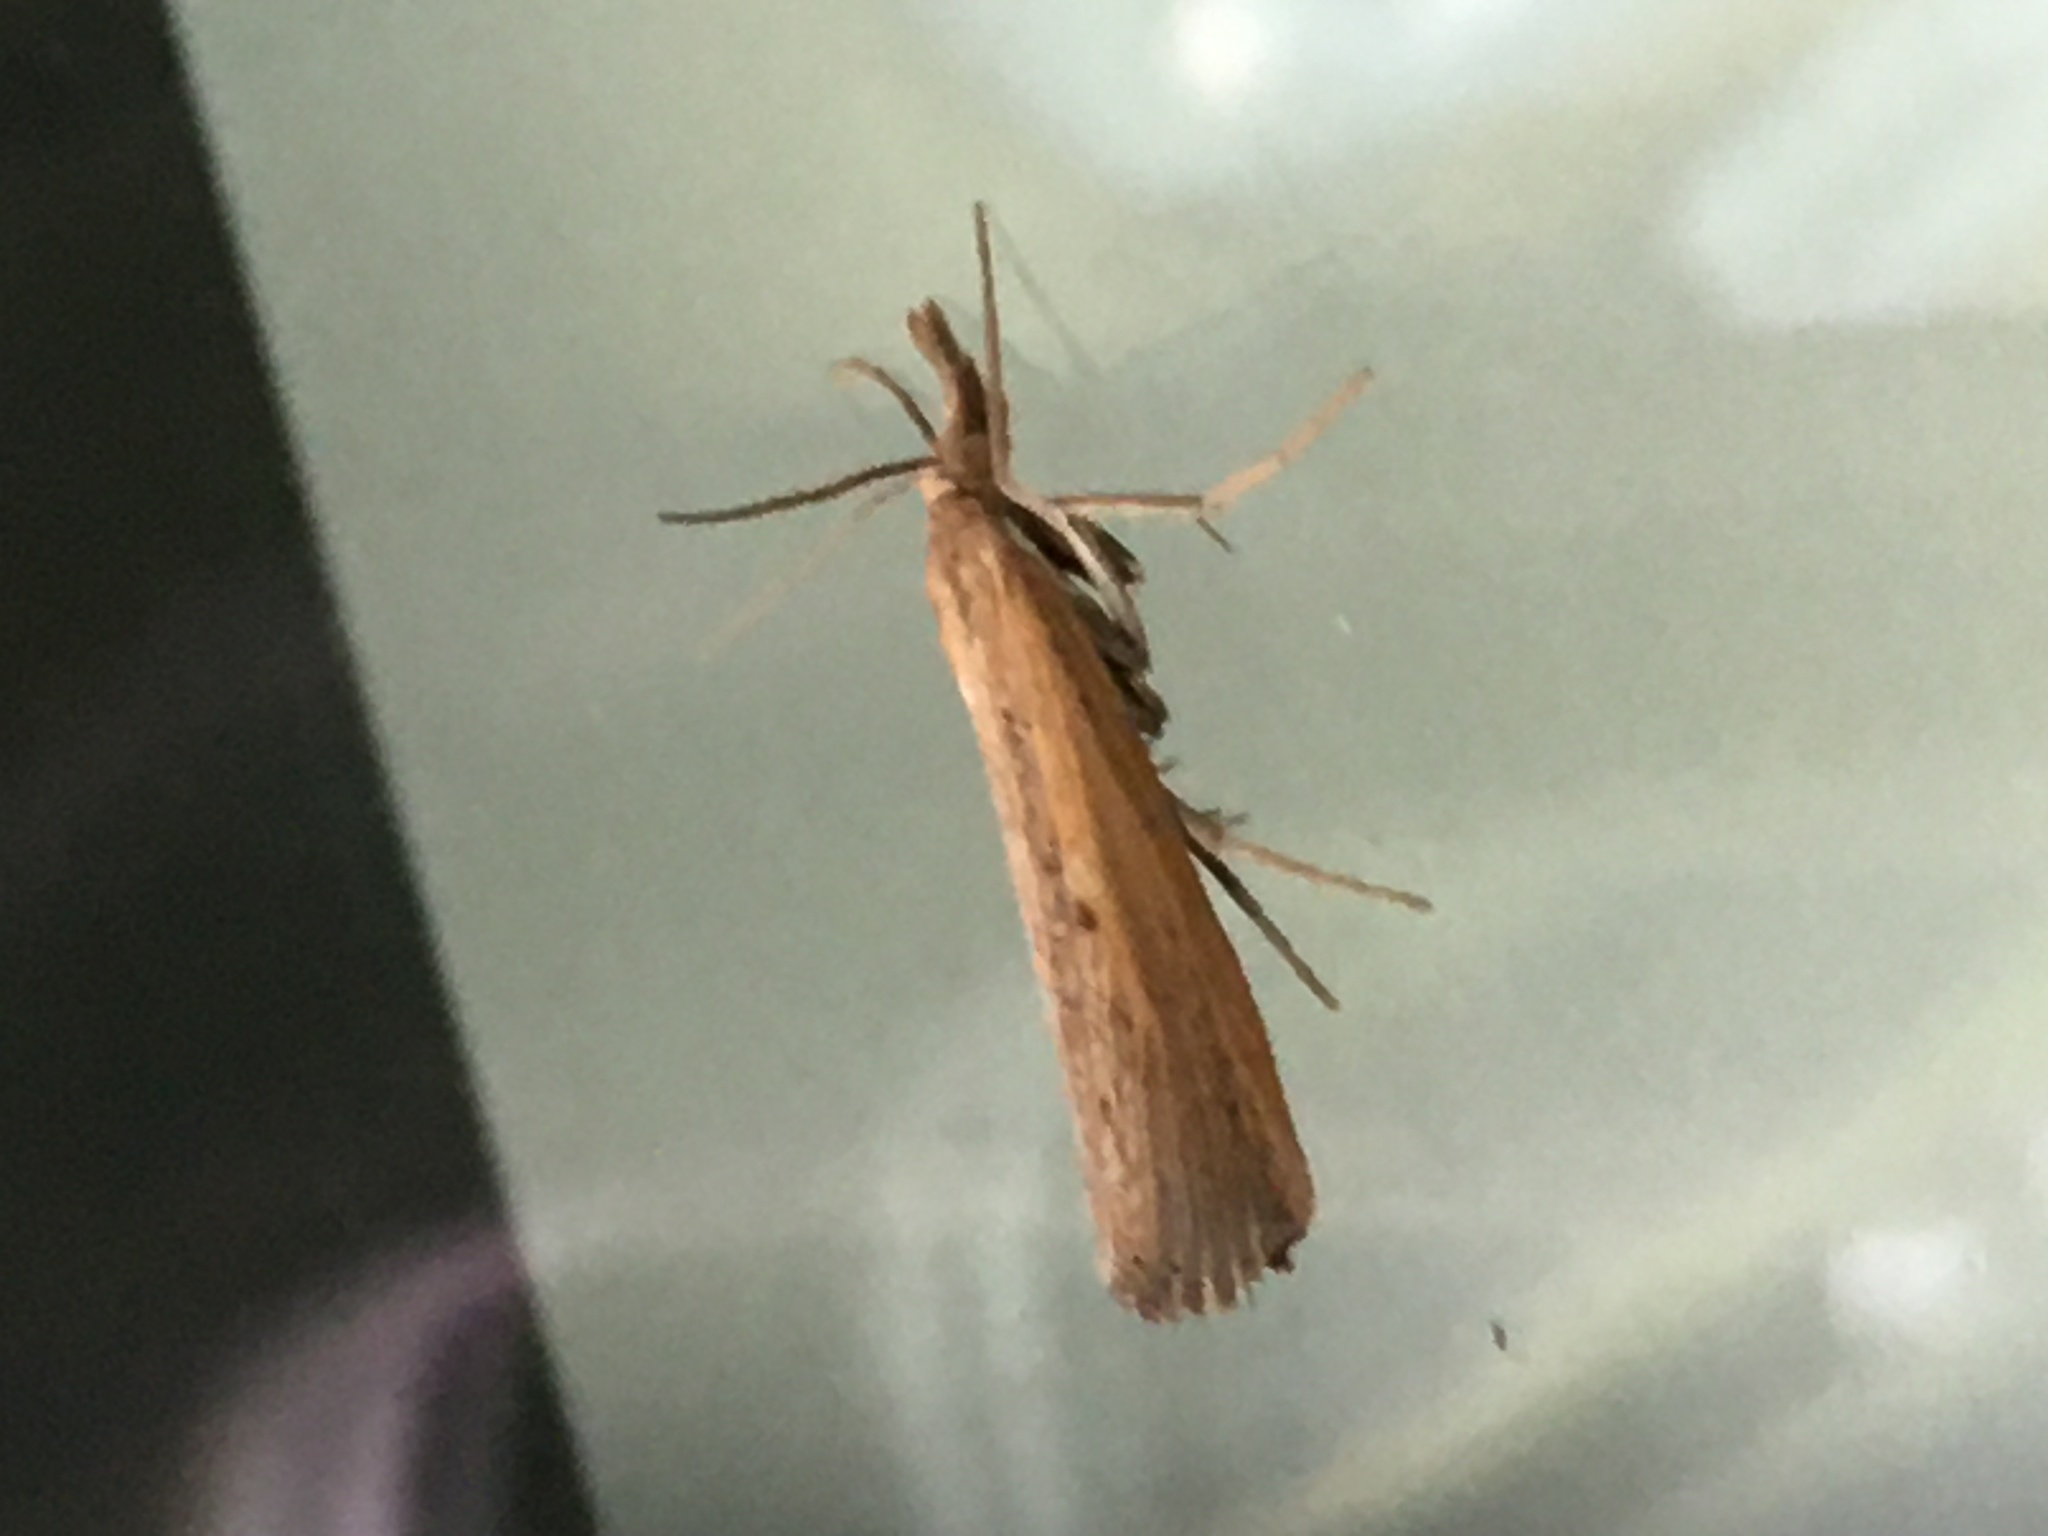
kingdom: Animalia
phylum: Arthropoda
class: Insecta
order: Lepidoptera
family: Crambidae
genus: Pediasia
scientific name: Pediasia trisecta
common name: Sod webworm moth
